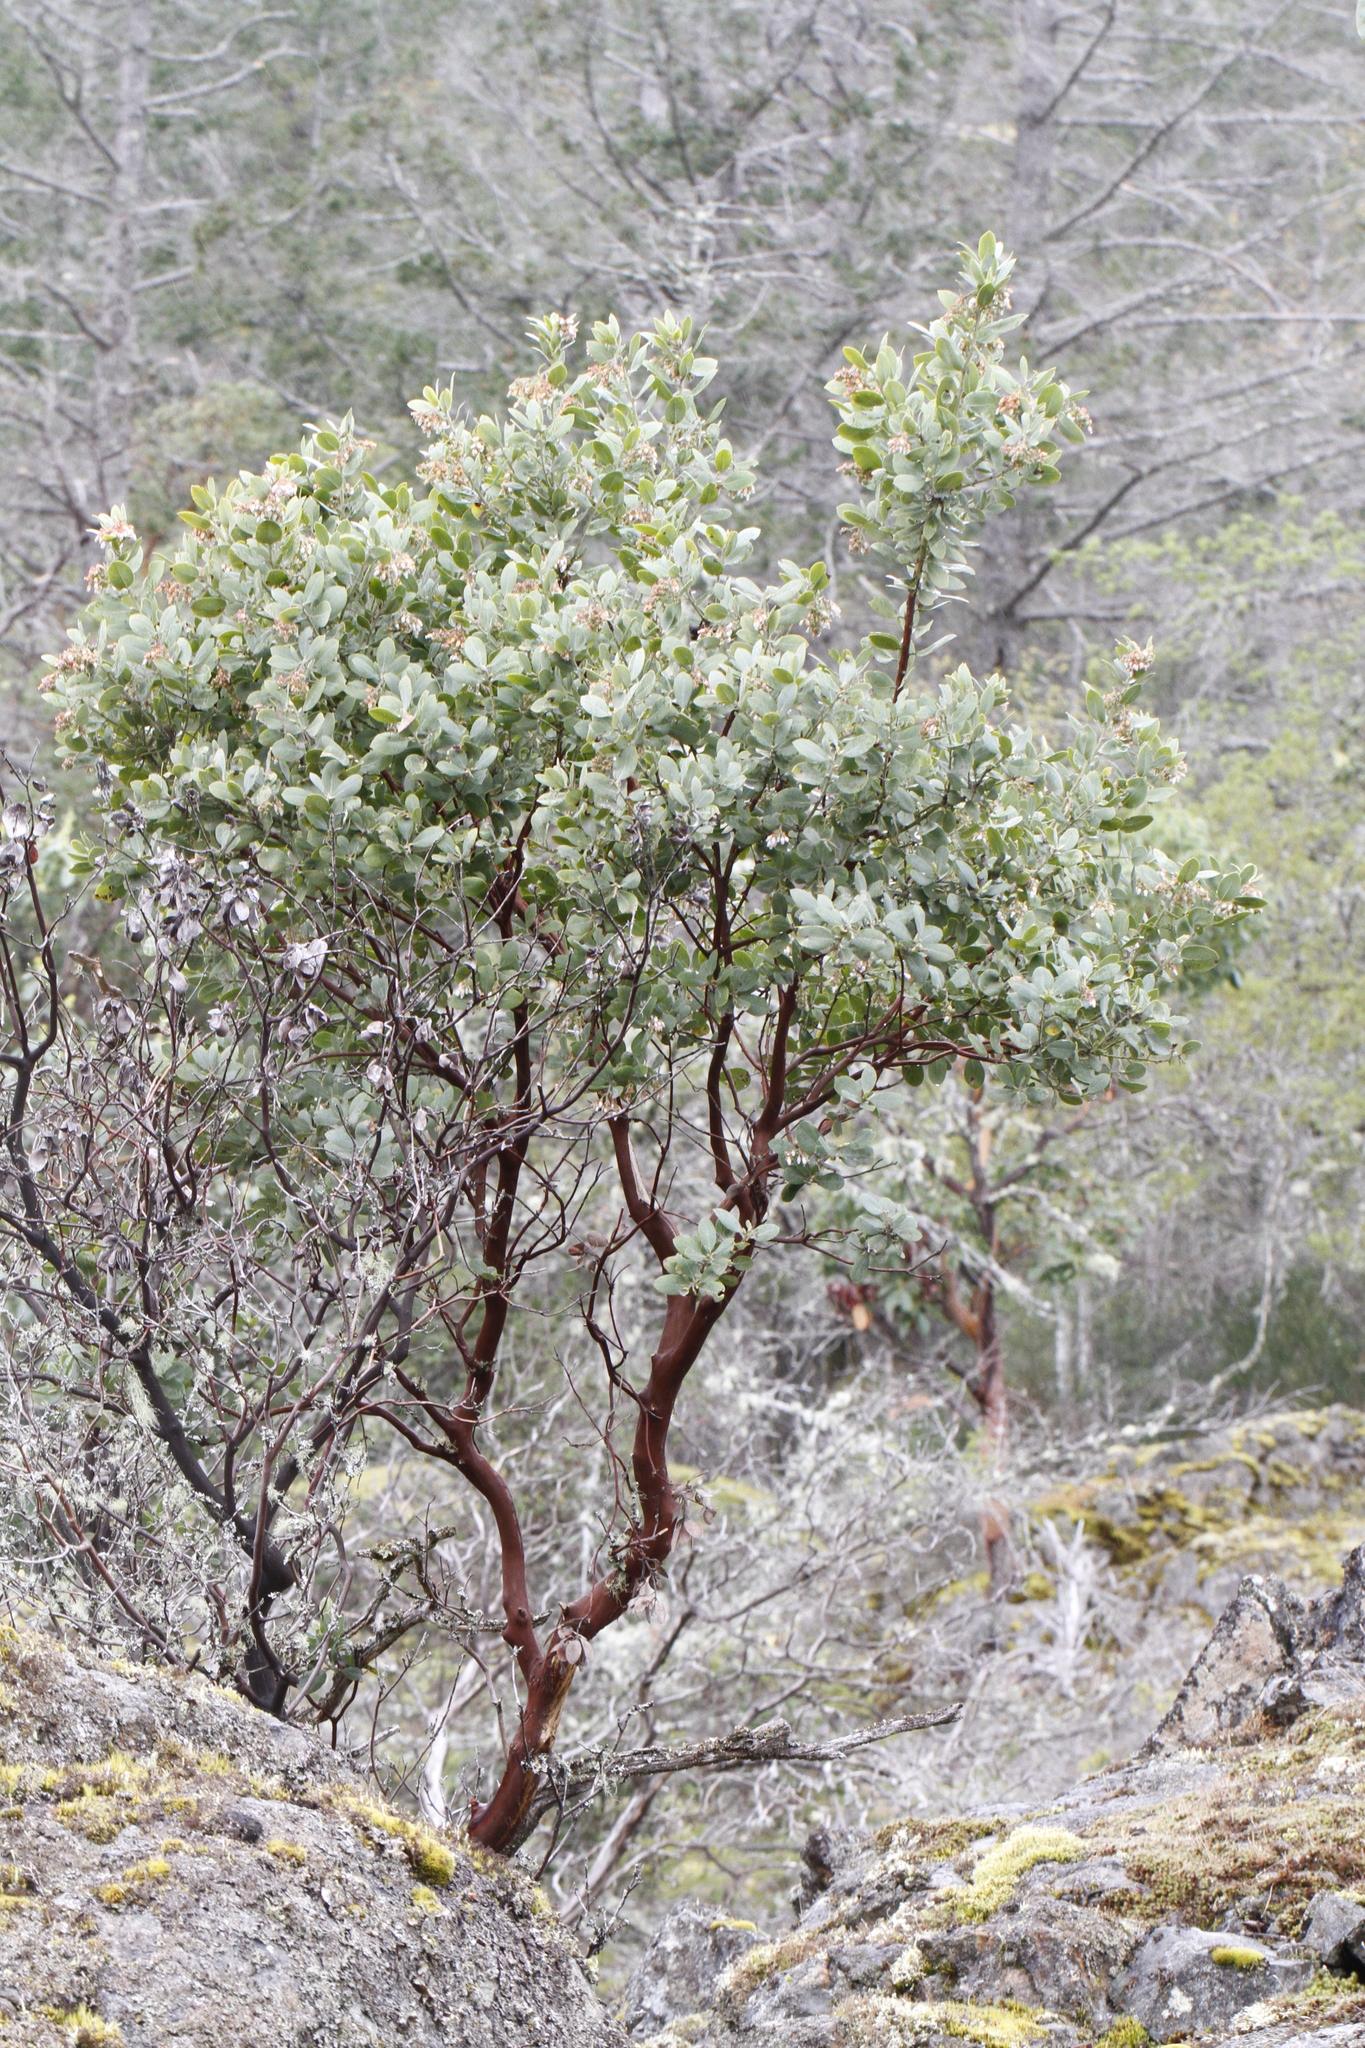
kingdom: Plantae
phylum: Tracheophyta
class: Magnoliopsida
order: Ericales
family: Ericaceae
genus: Arctostaphylos
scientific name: Arctostaphylos columbiana
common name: Bristly bearberry
